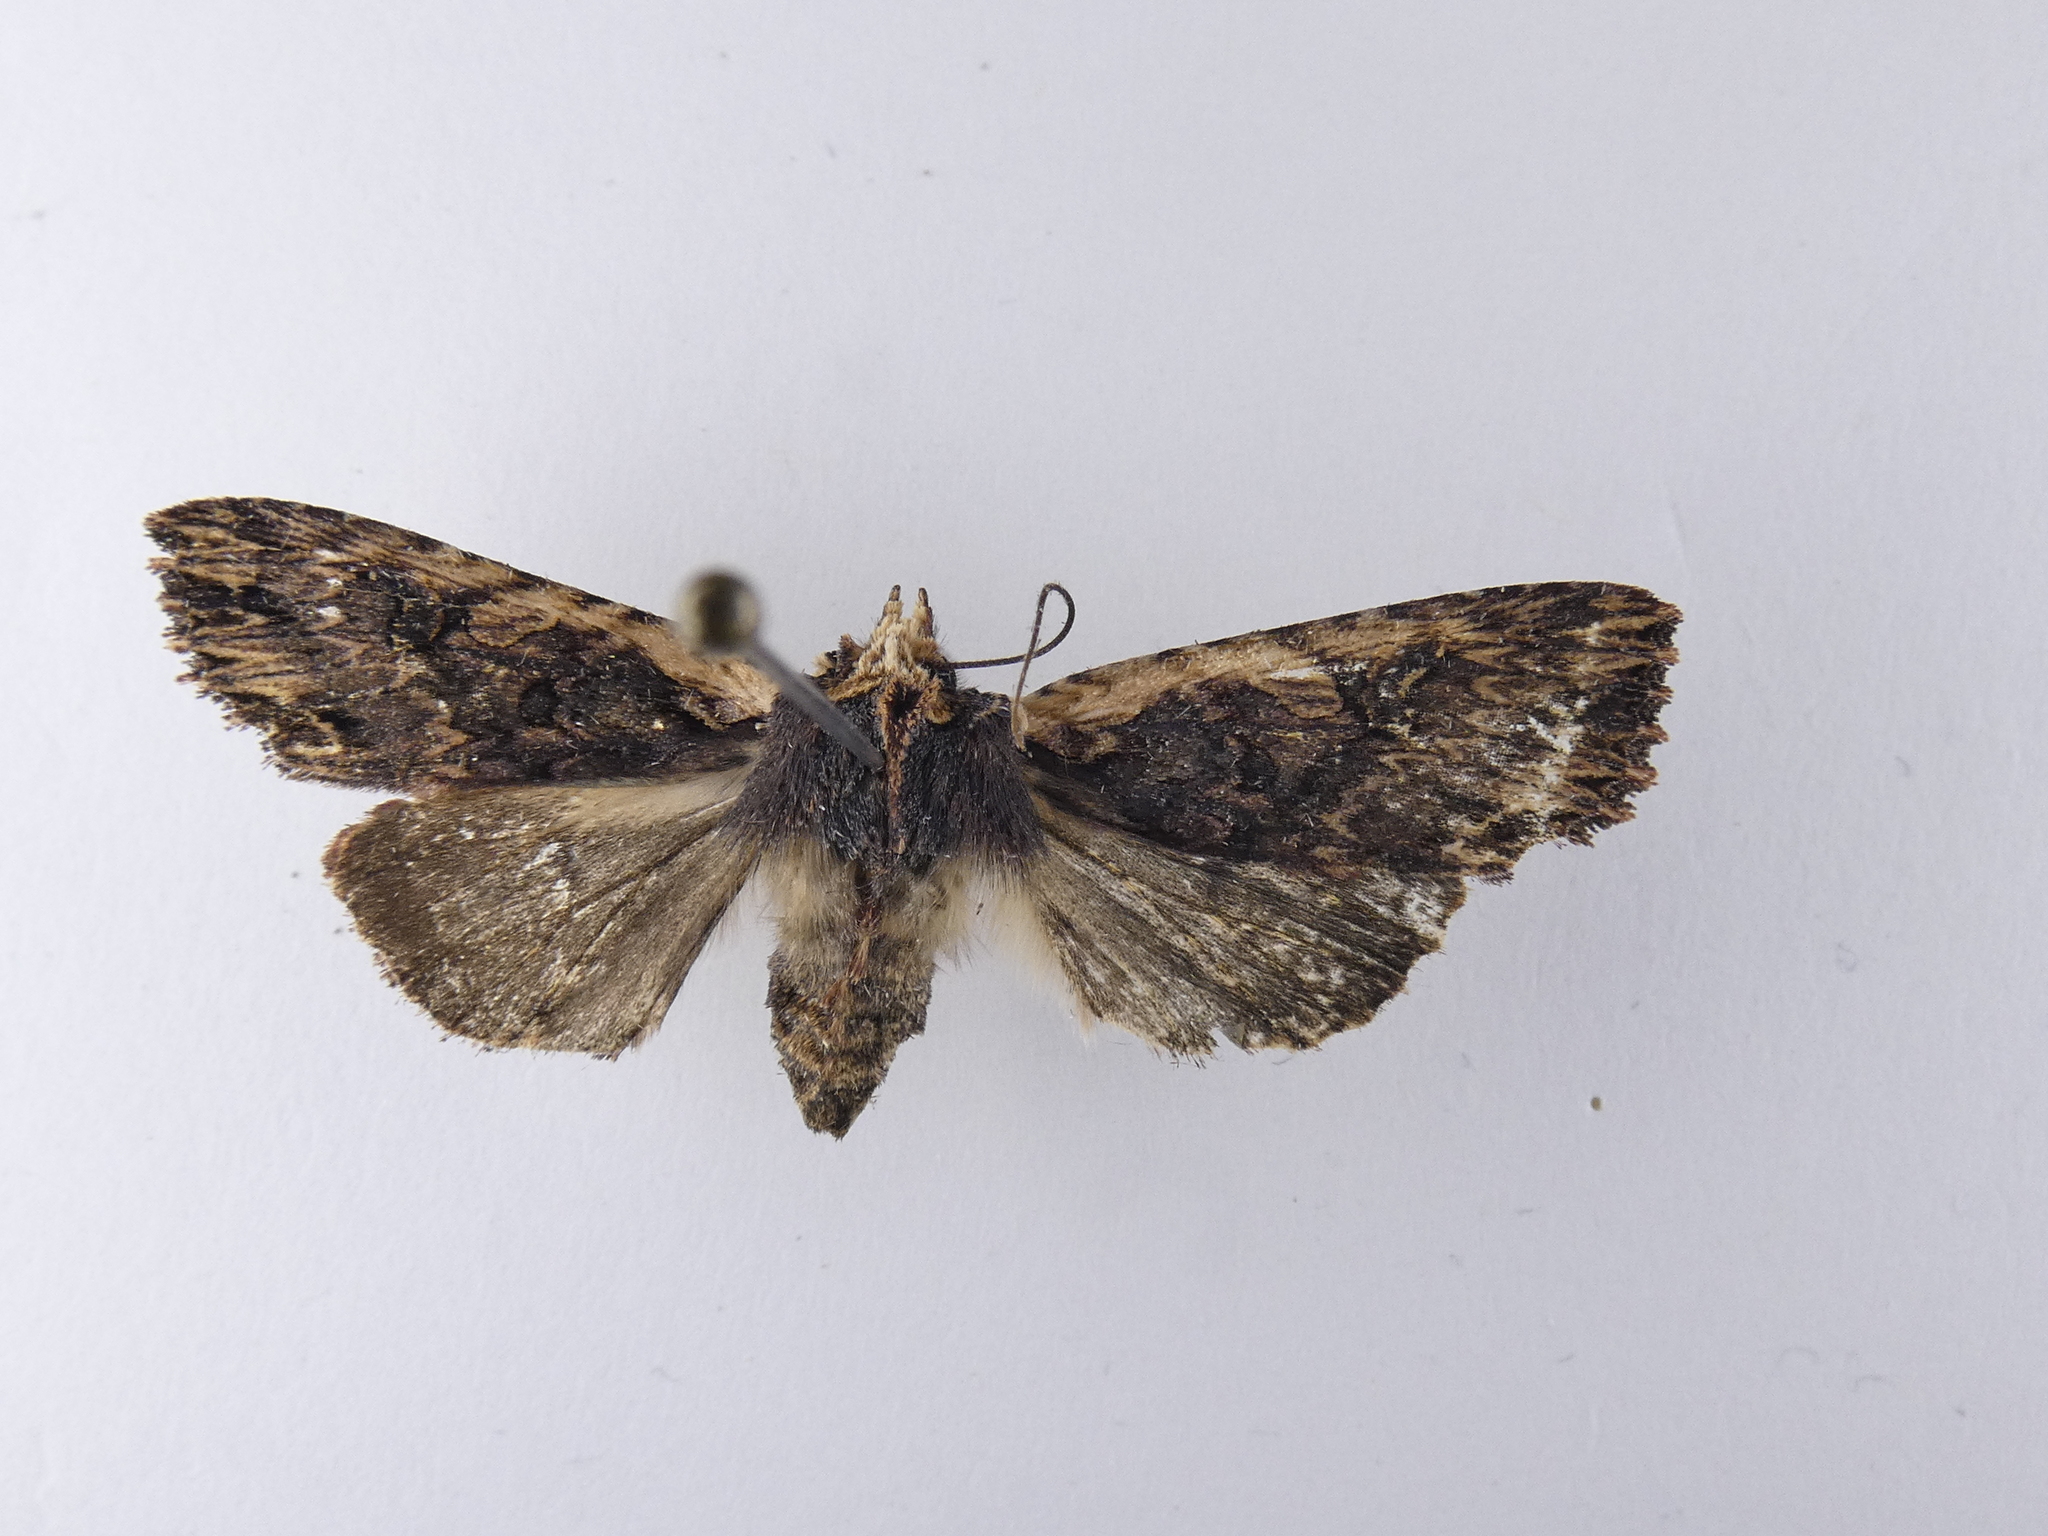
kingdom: Animalia
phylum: Arthropoda
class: Insecta
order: Lepidoptera
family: Noctuidae
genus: Meterana
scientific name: Meterana alcyone
